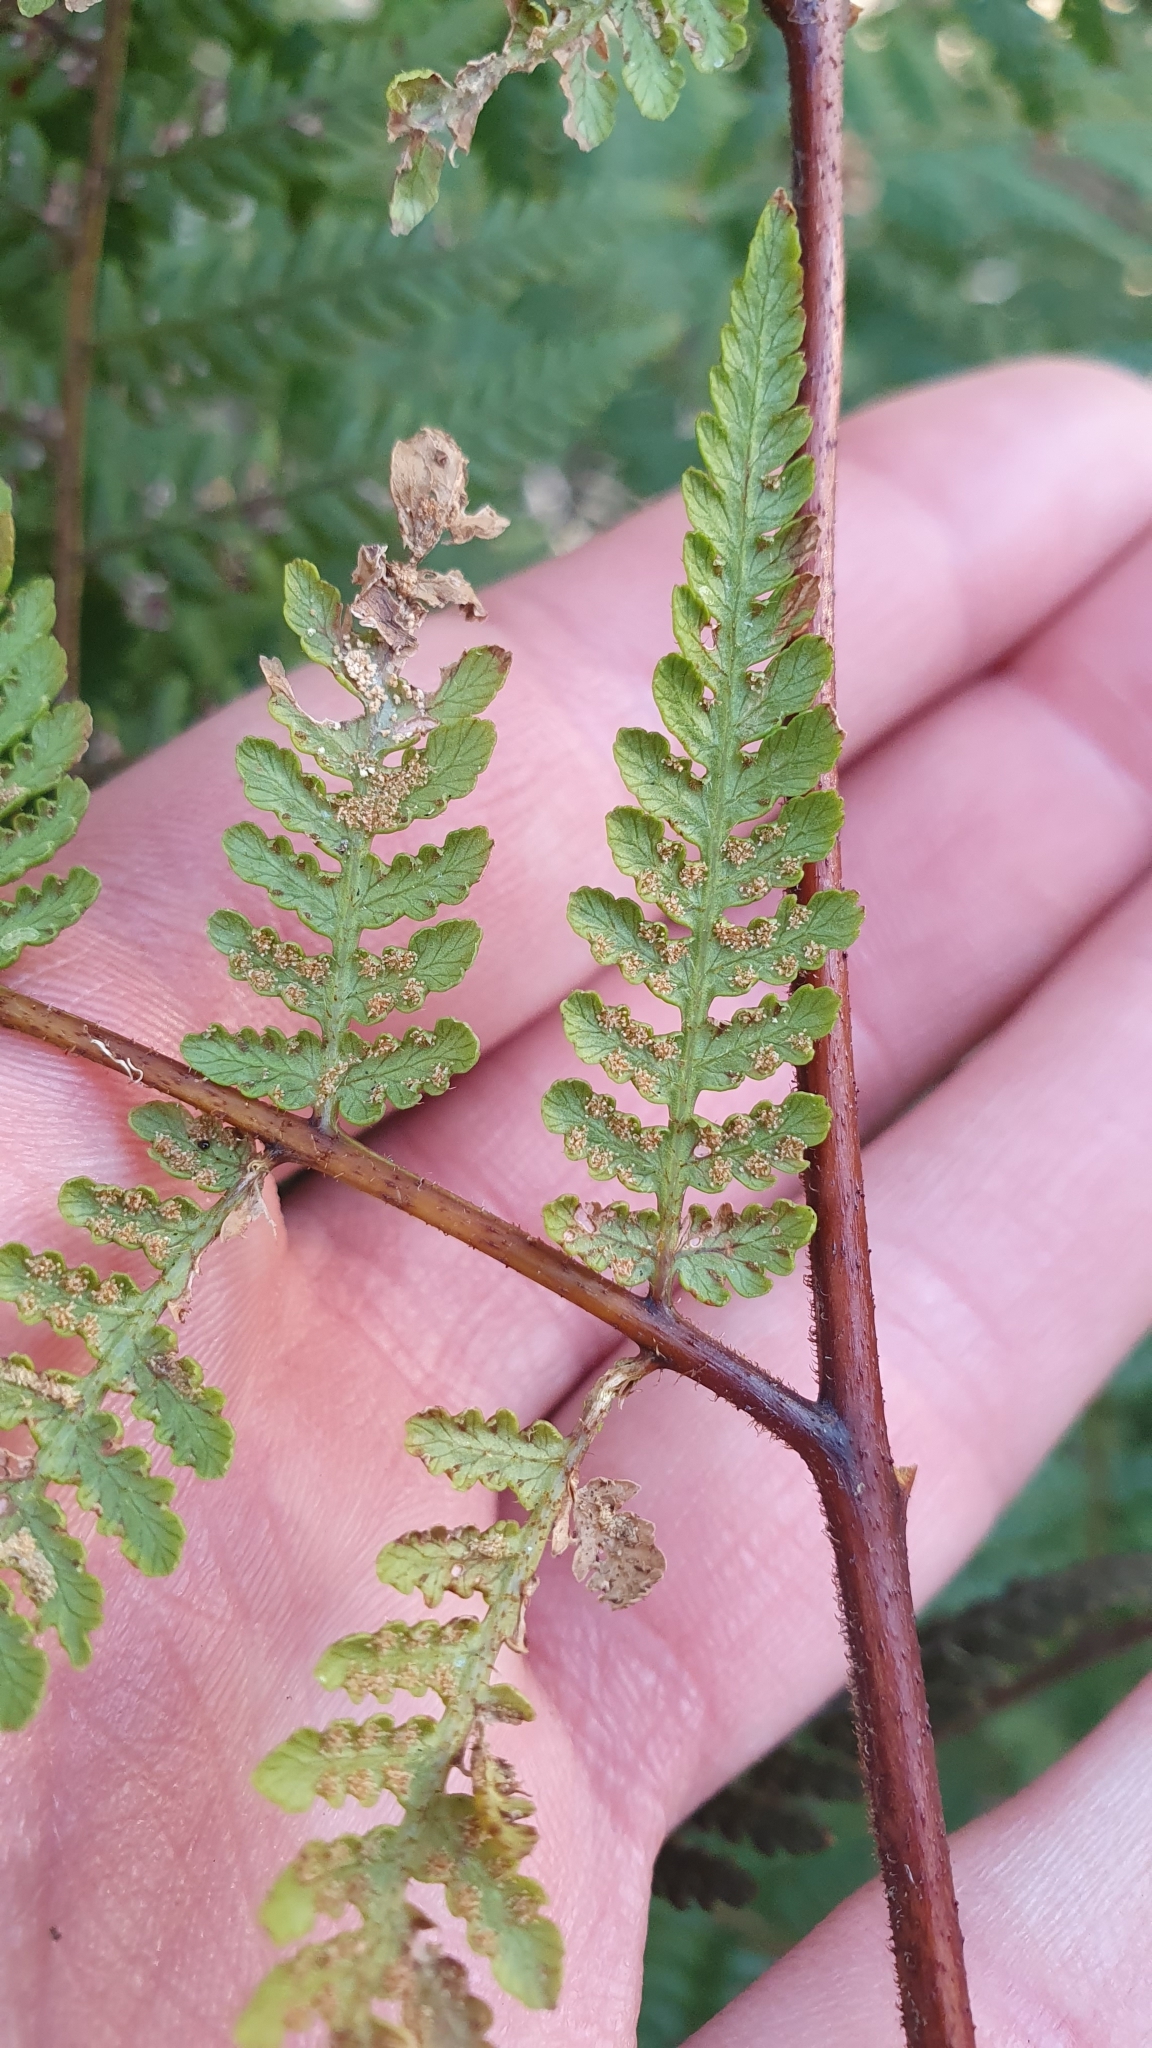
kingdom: Plantae
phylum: Tracheophyta
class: Polypodiopsida
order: Polypodiales
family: Dennstaedtiaceae
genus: Hypolepis
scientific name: Hypolepis ambigua
